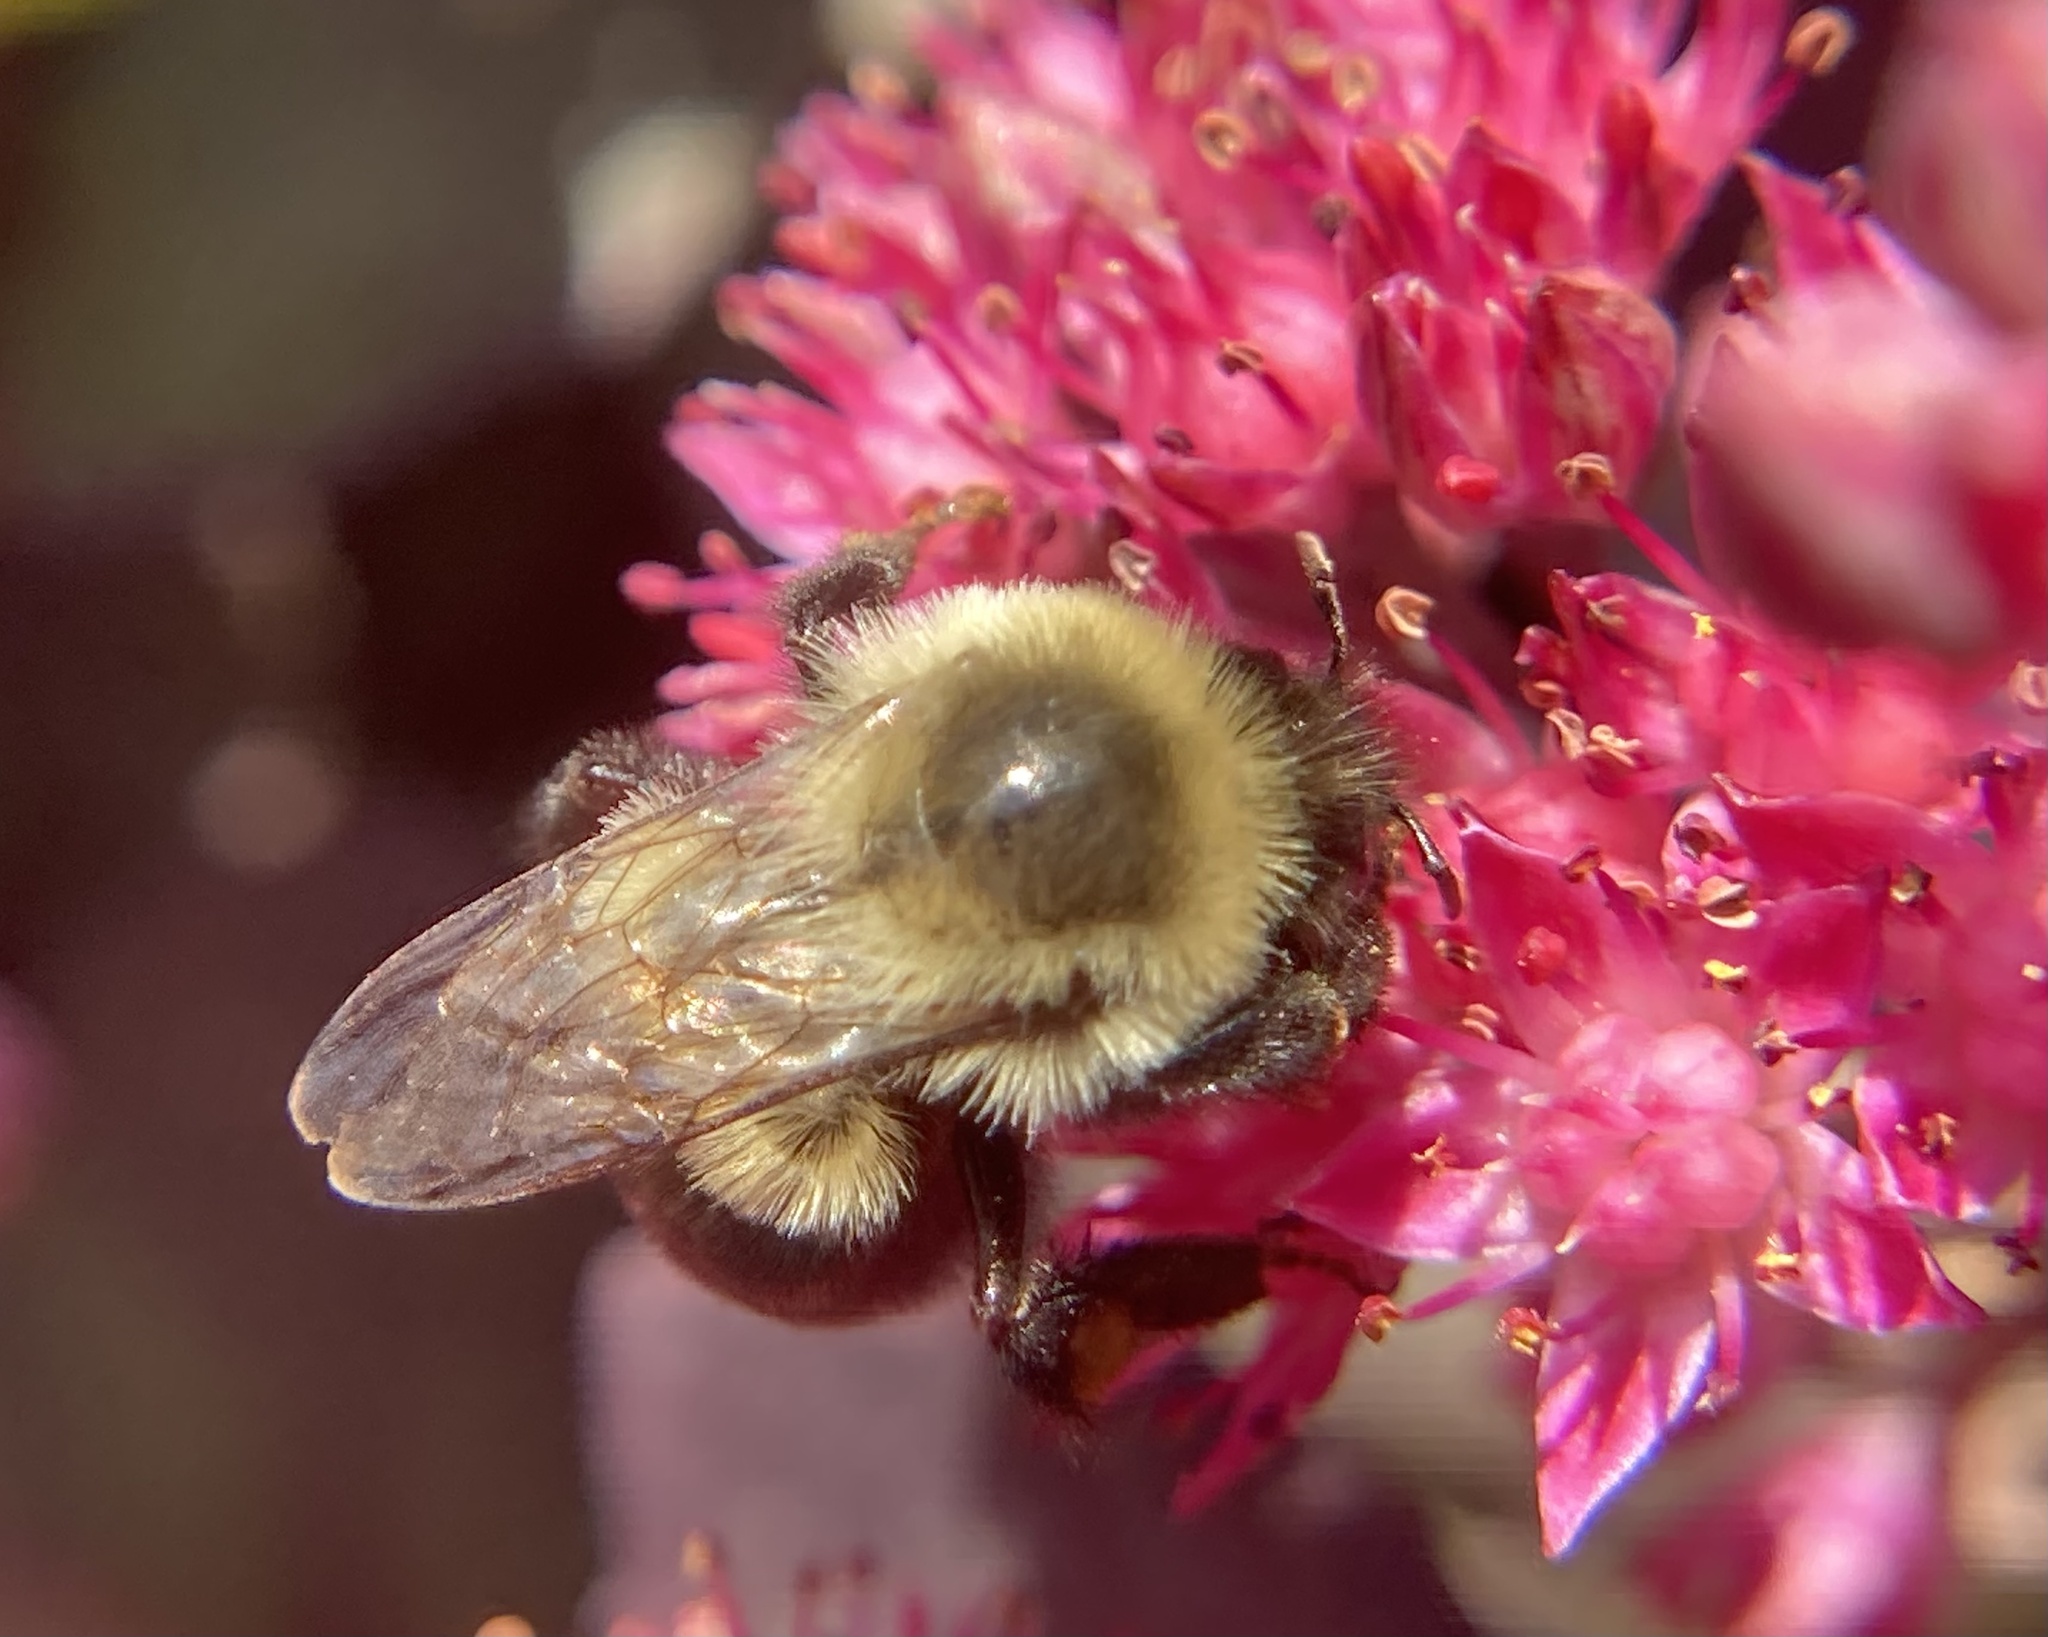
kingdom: Animalia
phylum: Arthropoda
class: Insecta
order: Hymenoptera
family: Apidae
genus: Bombus
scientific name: Bombus impatiens
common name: Common eastern bumble bee
